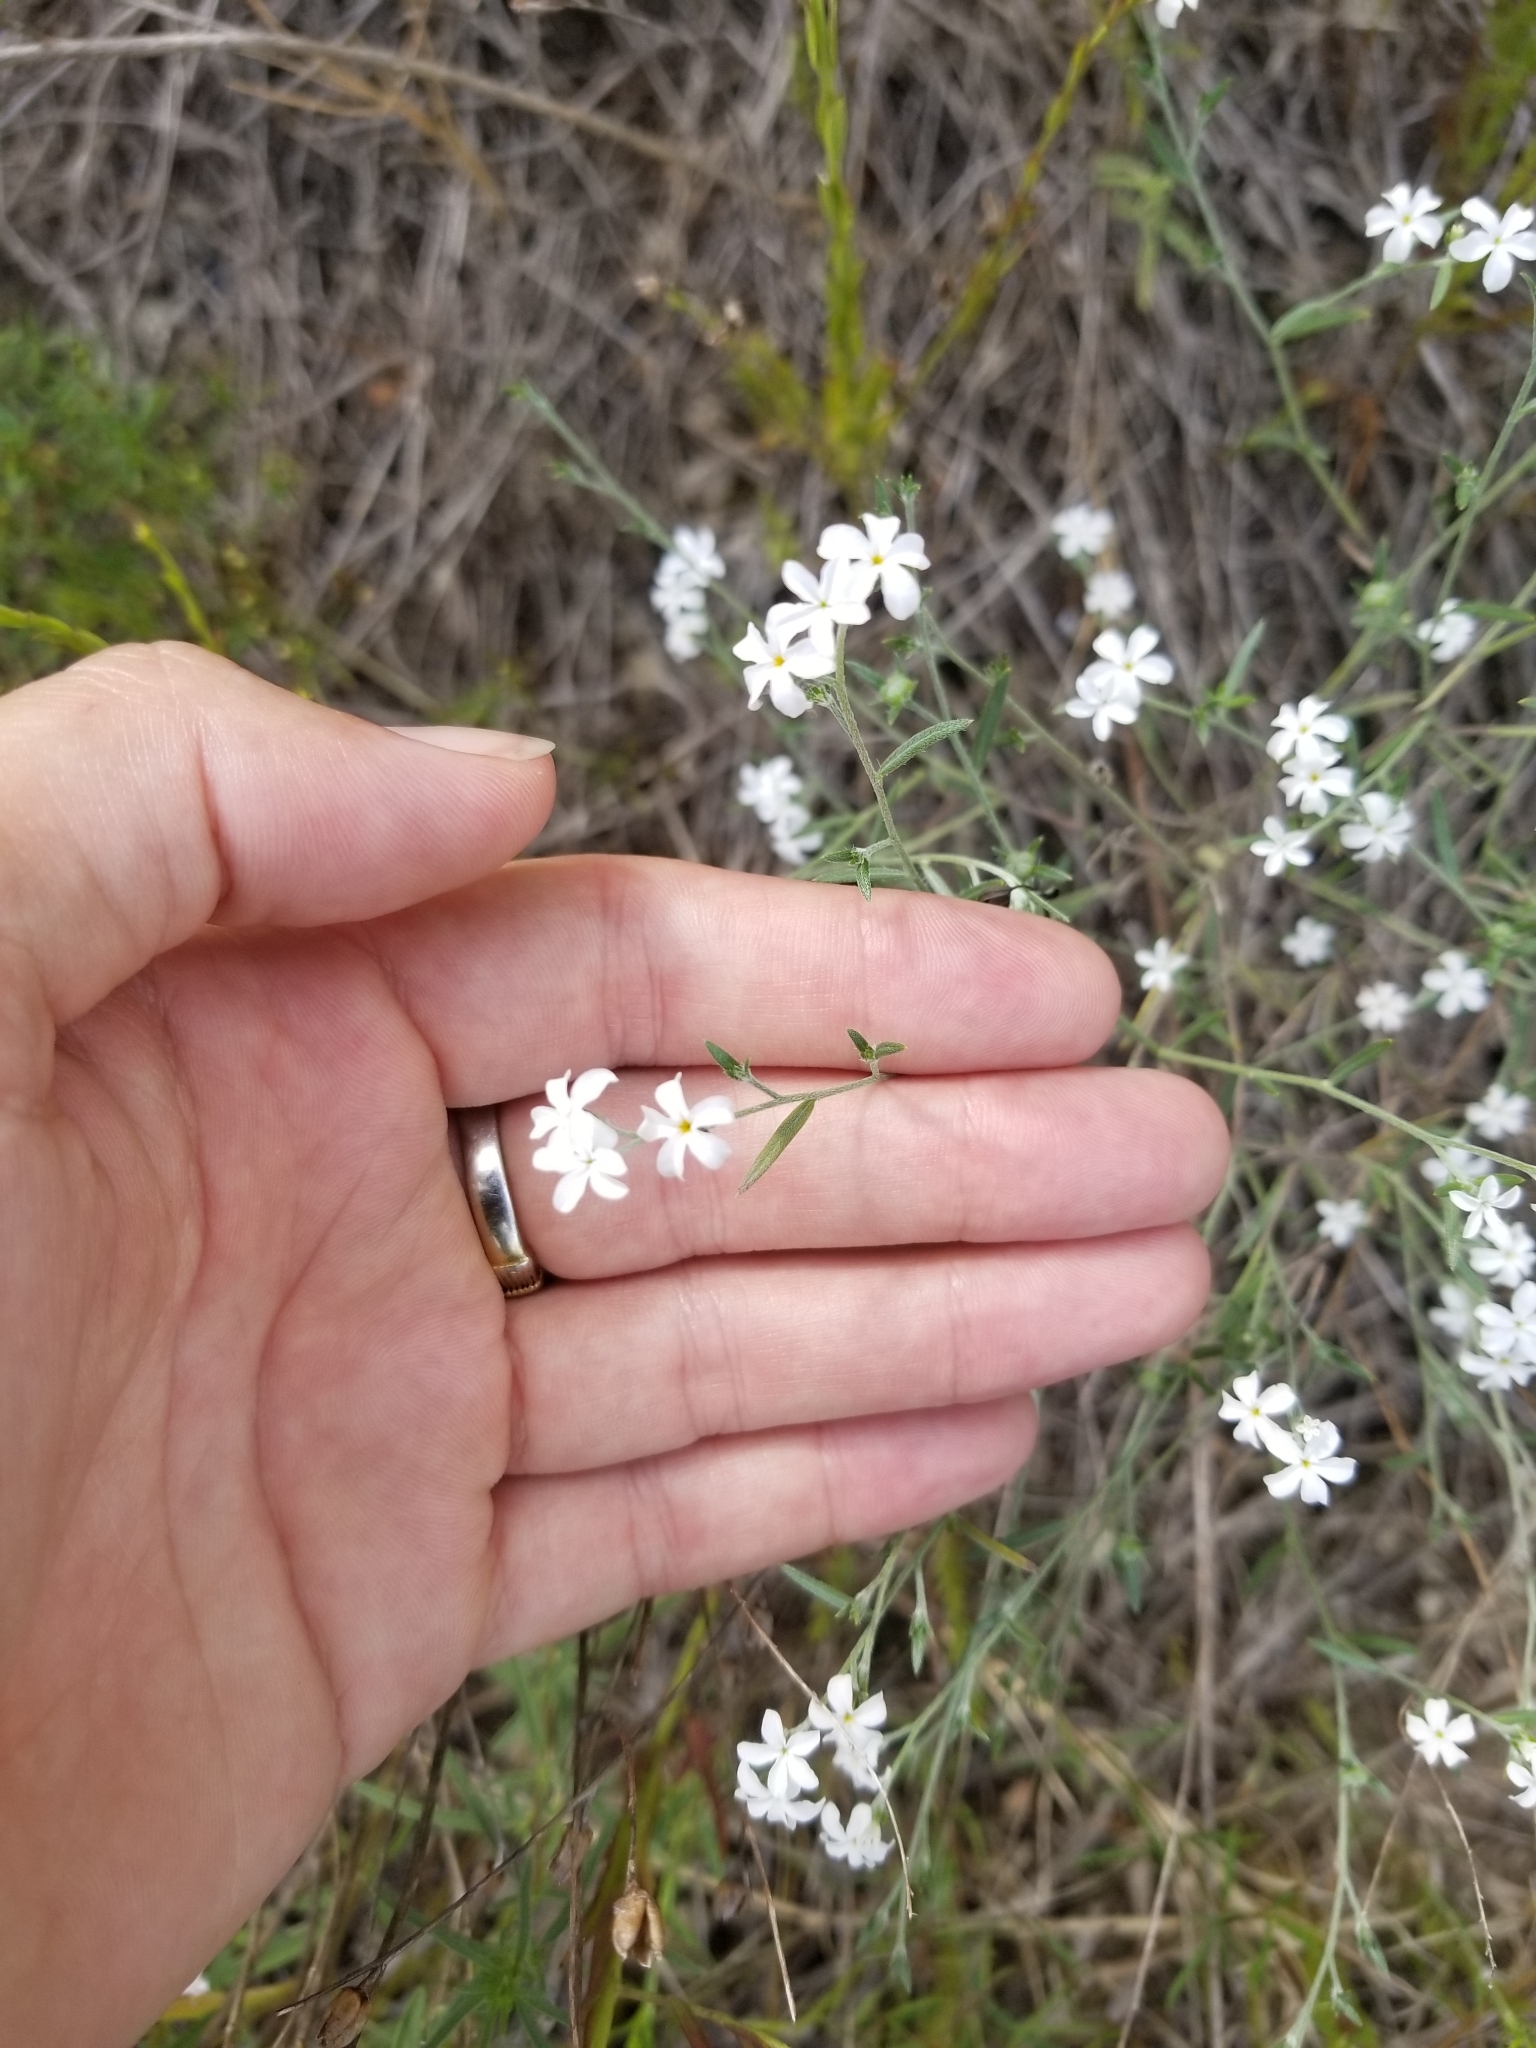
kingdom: Plantae
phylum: Tracheophyta
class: Magnoliopsida
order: Boraginales
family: Heliotropiaceae
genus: Euploca
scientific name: Euploca tenella
